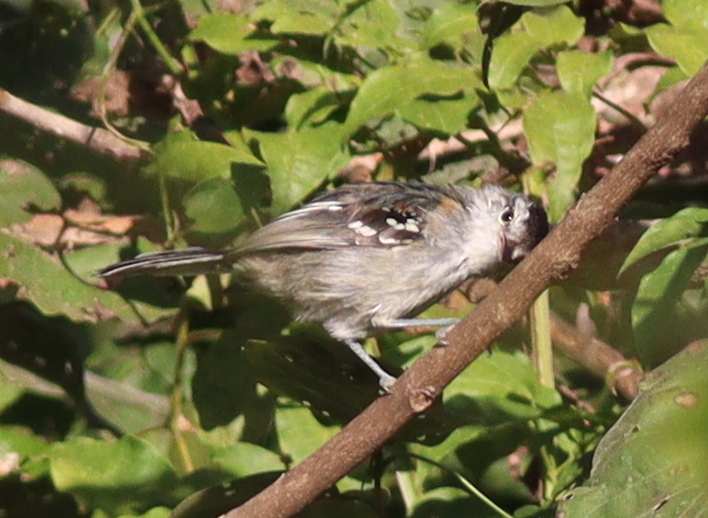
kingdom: Animalia
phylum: Chordata
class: Aves
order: Passeriformes
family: Thamnophilidae
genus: Herpsilochmus
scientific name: Herpsilochmus longirostris
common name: Large-billed antwren
